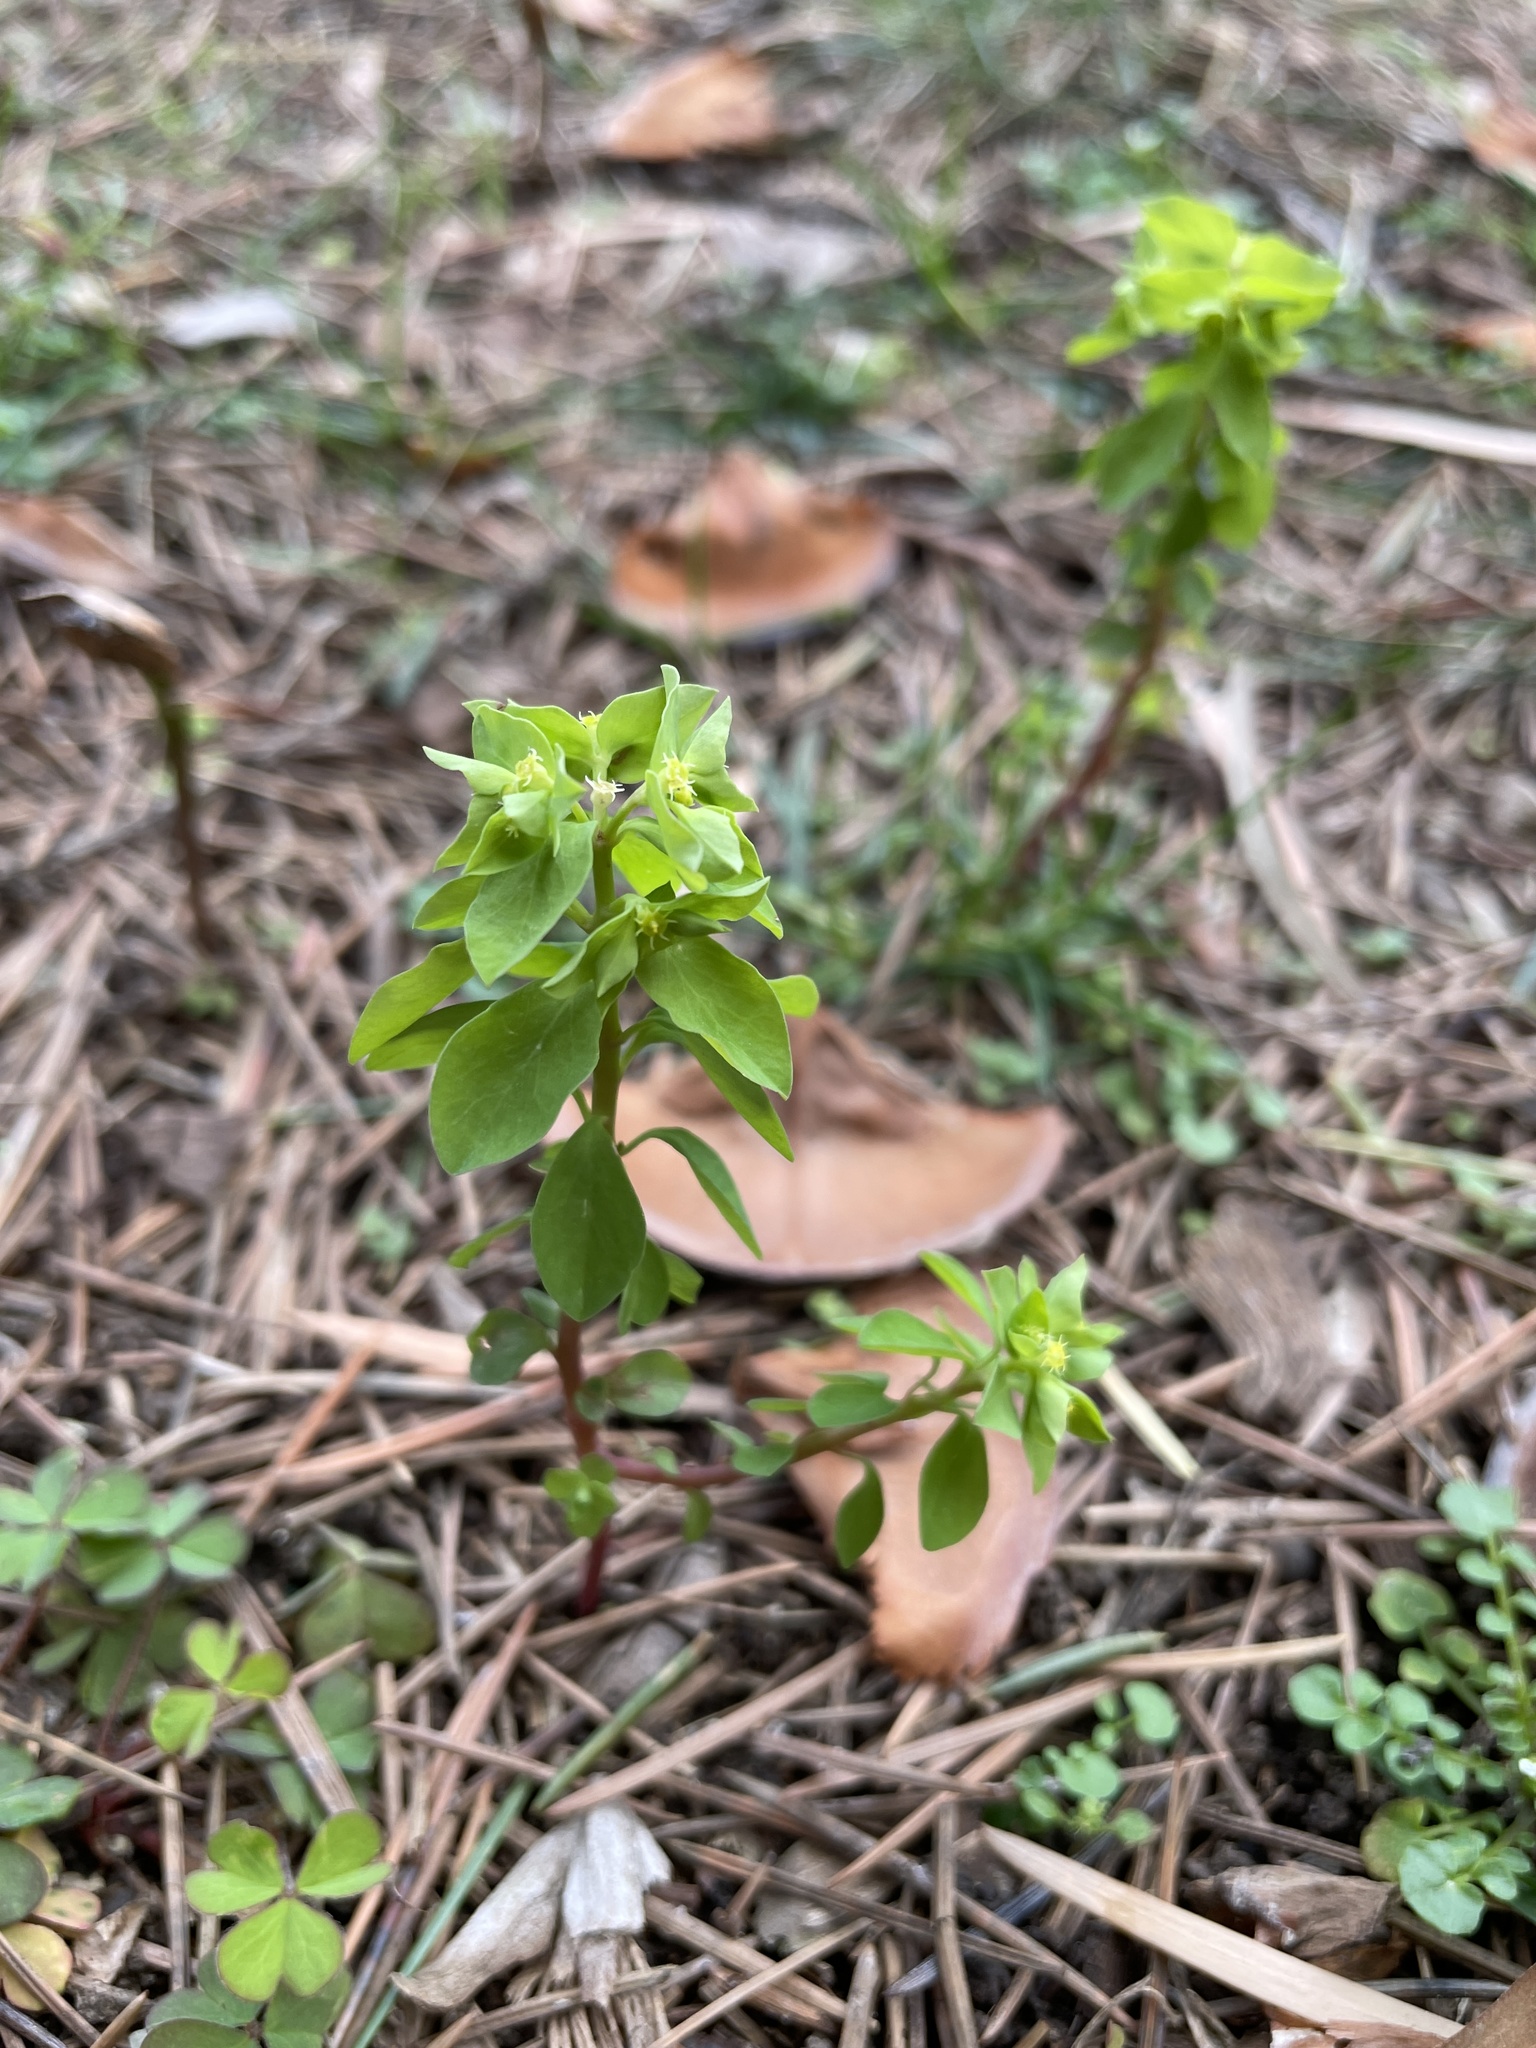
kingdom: Plantae
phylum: Tracheophyta
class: Magnoliopsida
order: Malpighiales
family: Euphorbiaceae
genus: Euphorbia
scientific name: Euphorbia peplus
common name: Petty spurge
